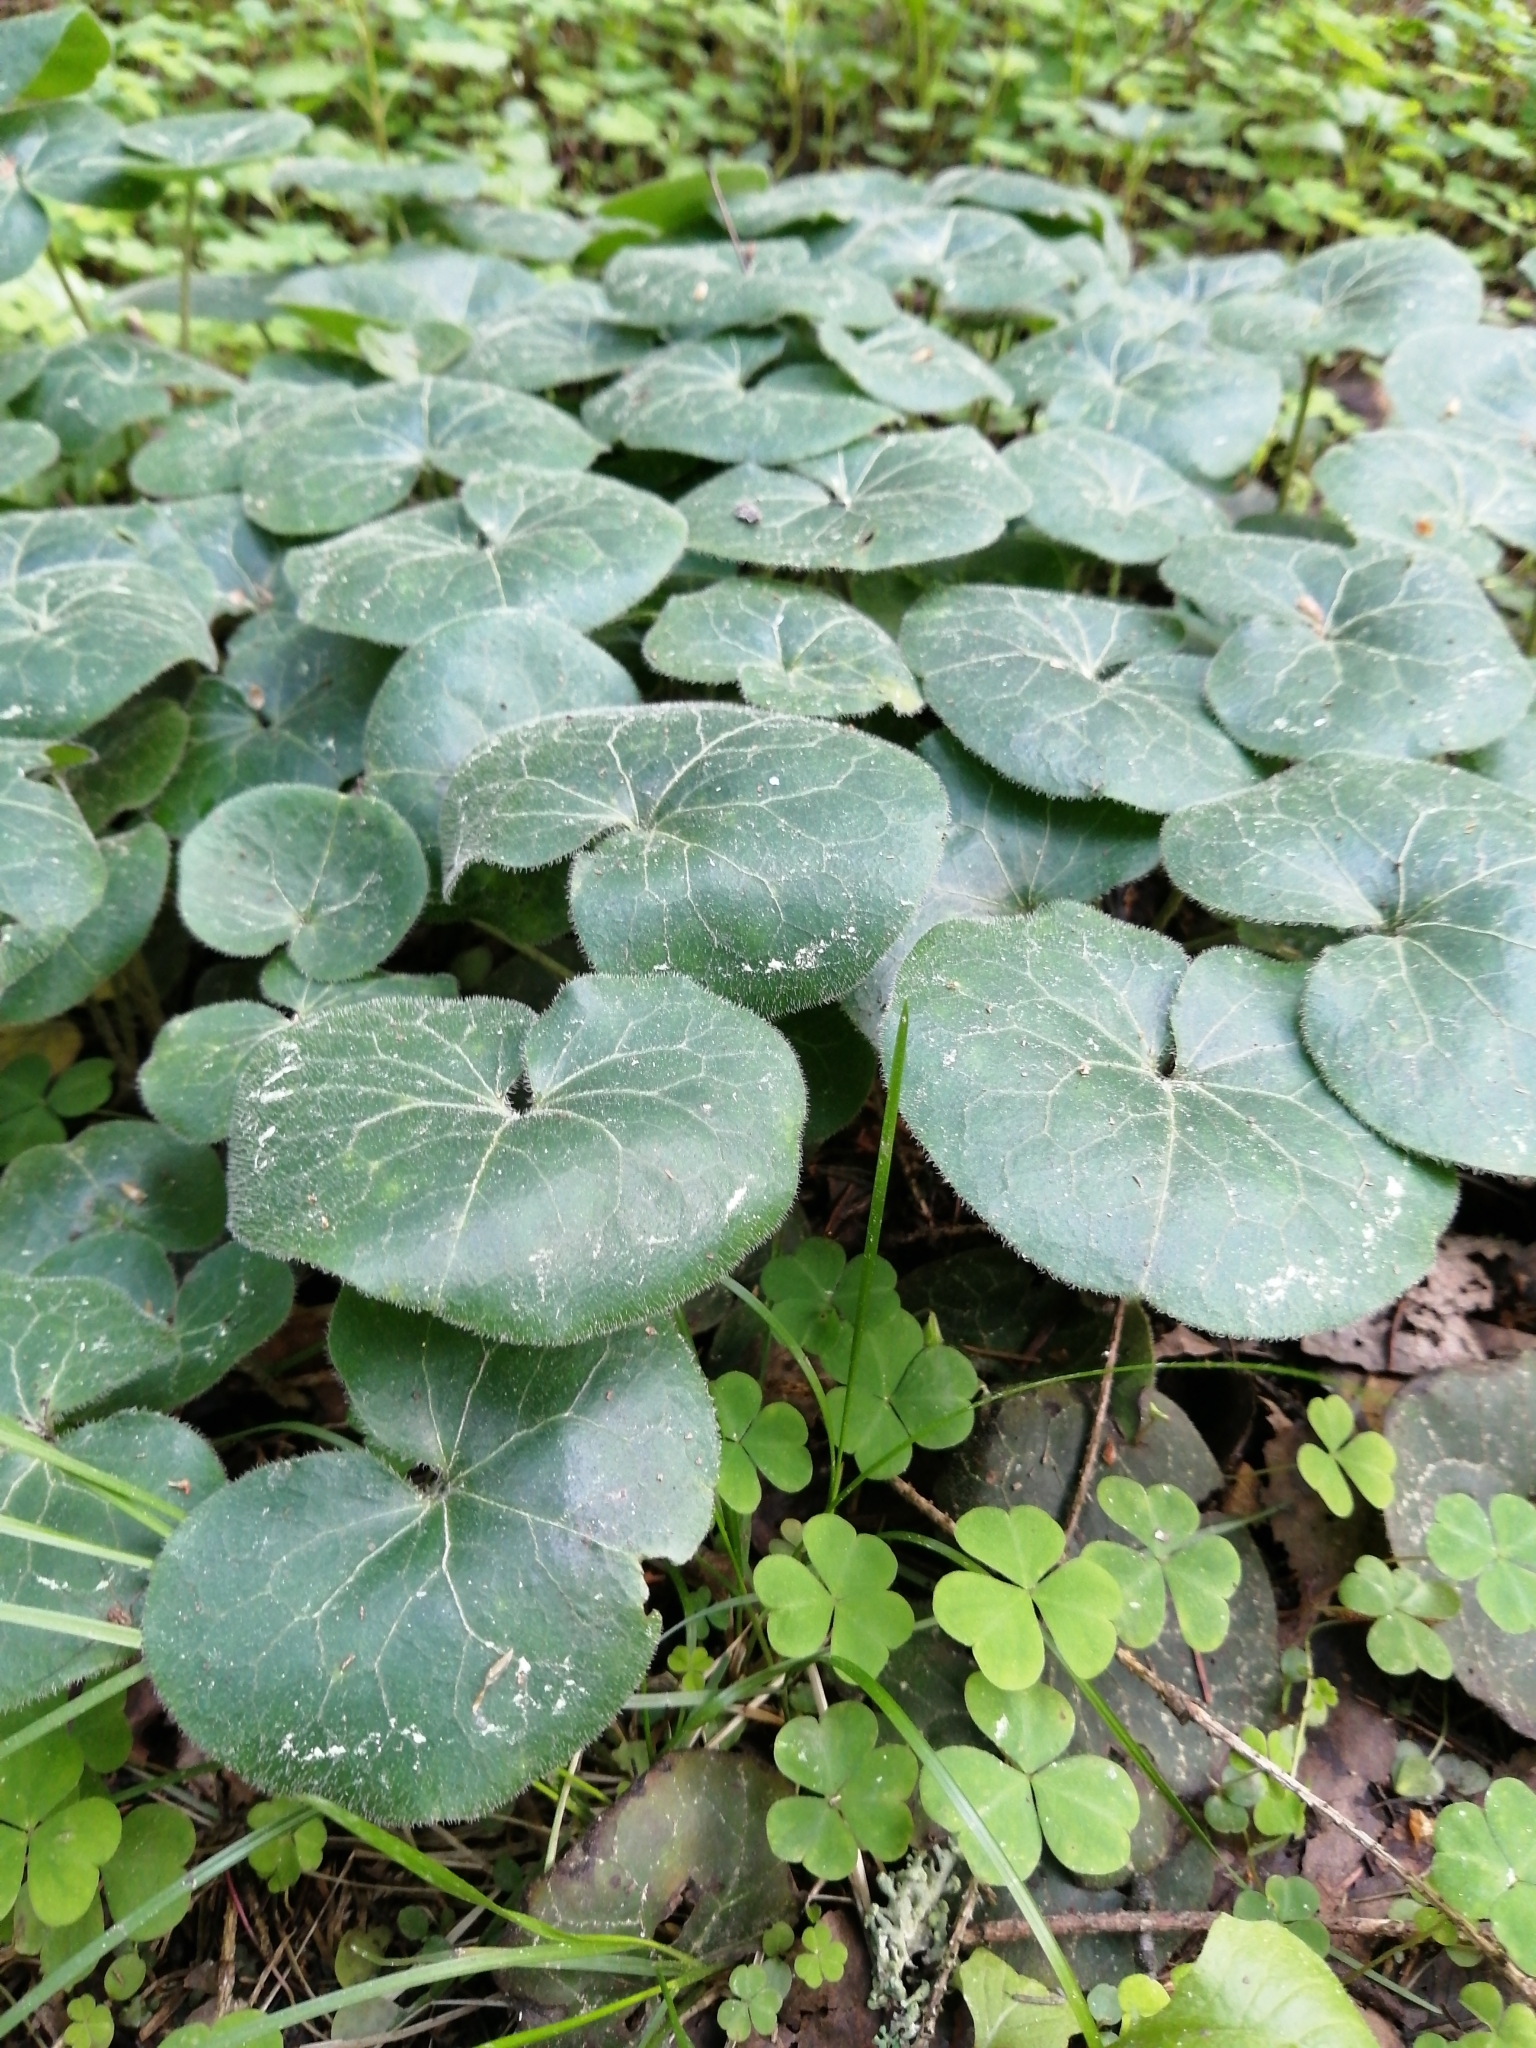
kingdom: Plantae
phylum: Tracheophyta
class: Magnoliopsida
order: Piperales
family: Aristolochiaceae
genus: Asarum
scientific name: Asarum europaeum
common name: Asarabacca
